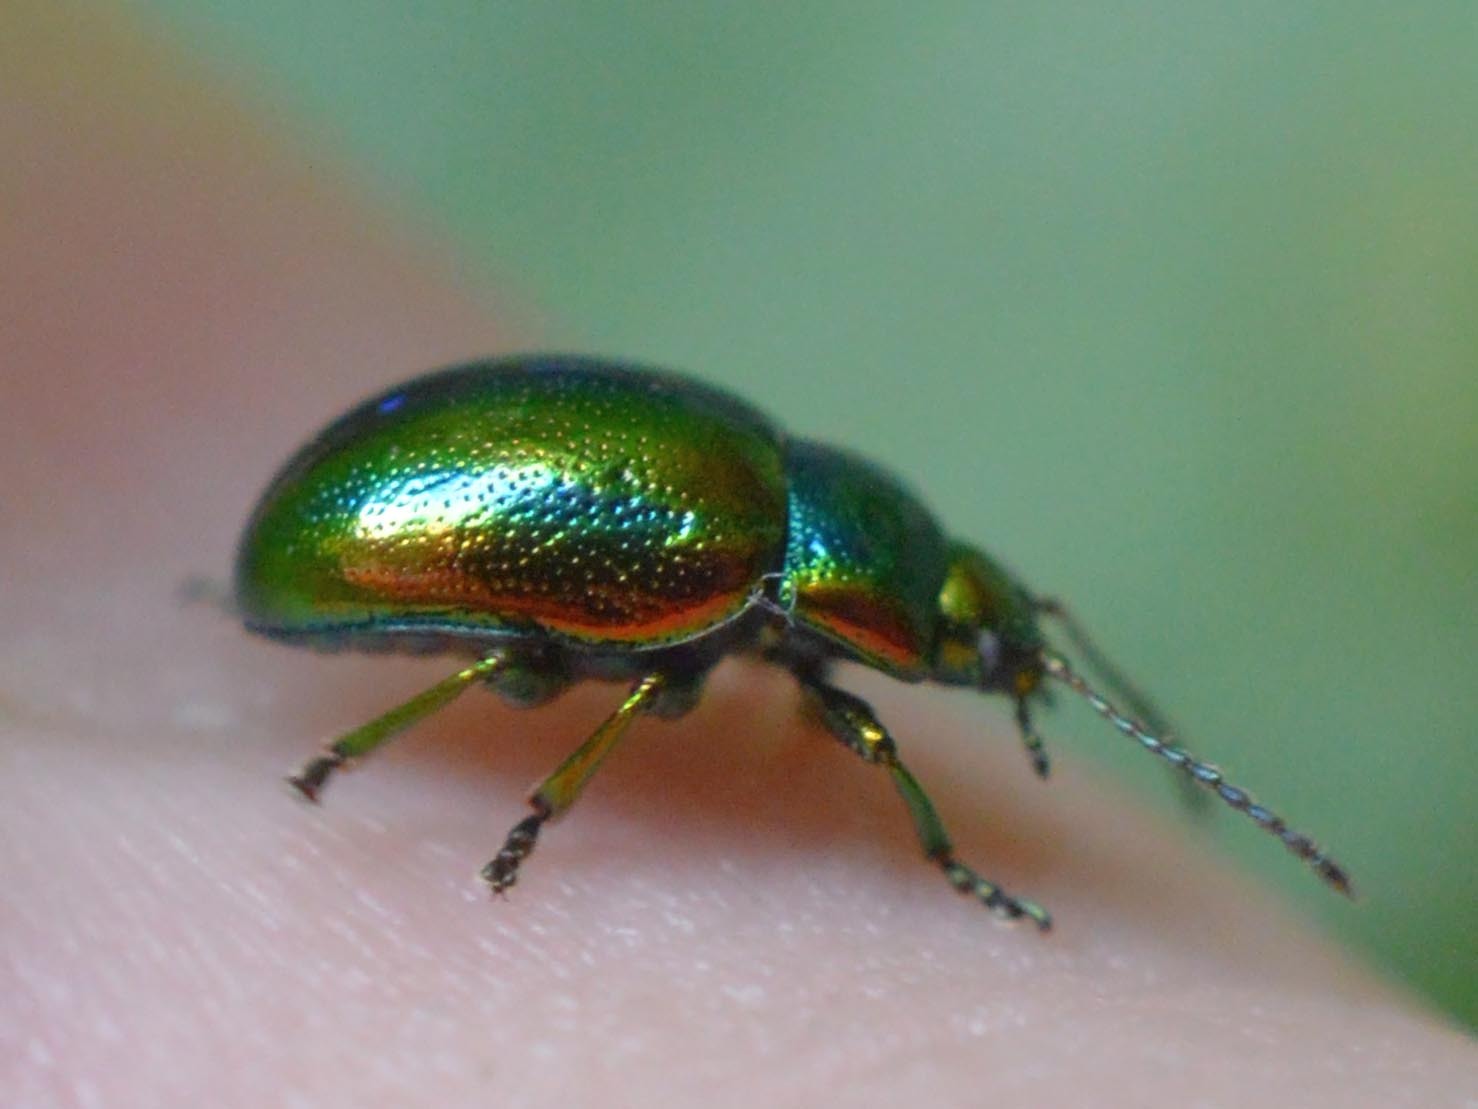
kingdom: Animalia
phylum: Arthropoda
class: Insecta
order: Coleoptera
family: Chrysomelidae
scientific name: Chrysomelidae
